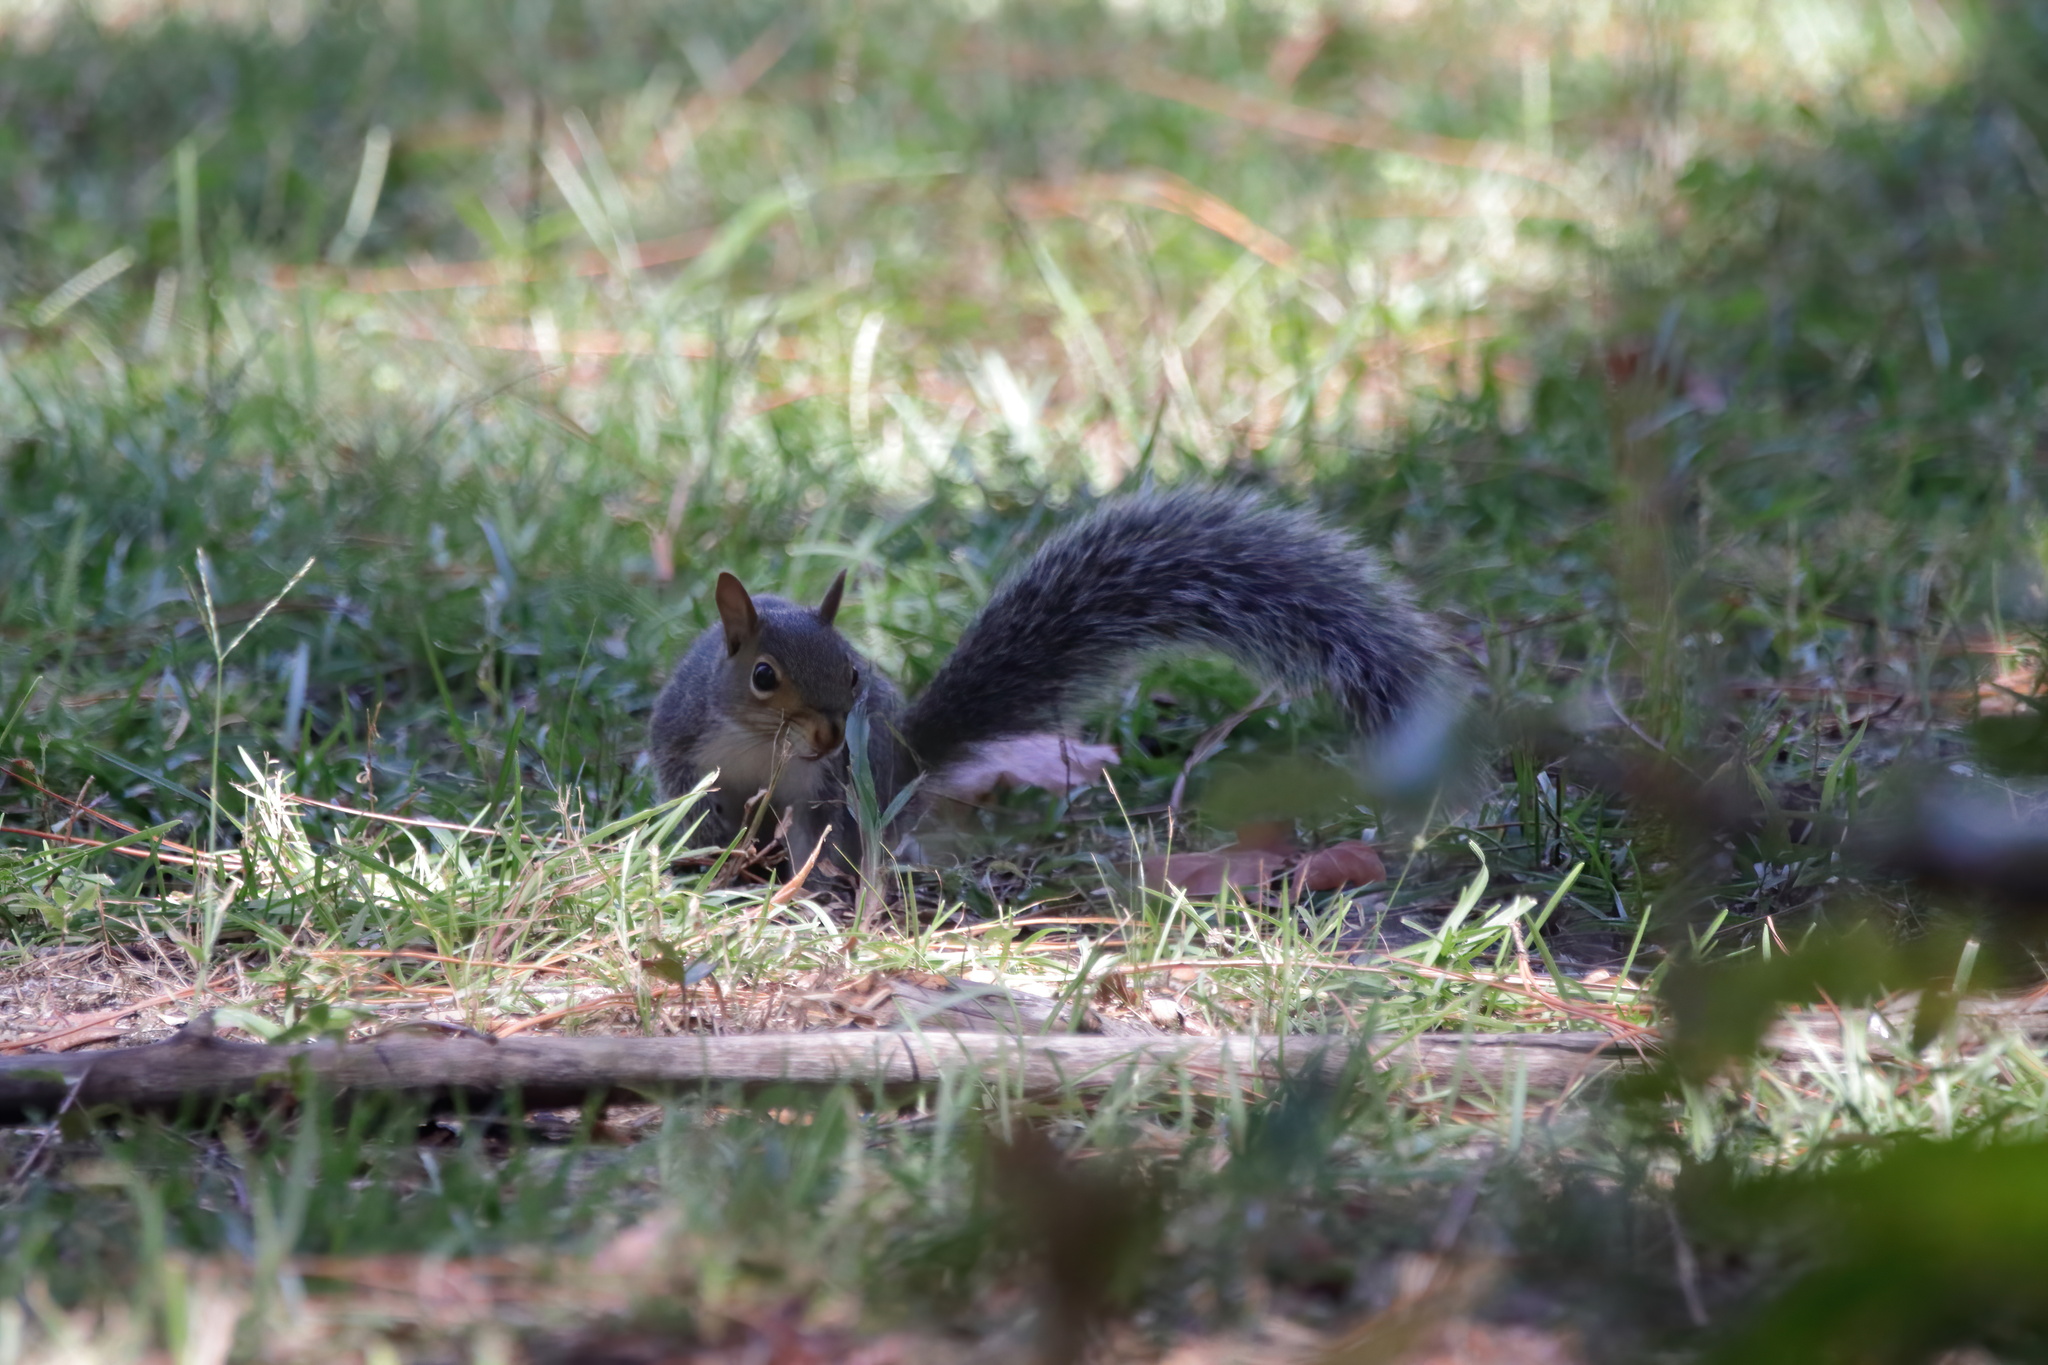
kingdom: Animalia
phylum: Chordata
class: Mammalia
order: Rodentia
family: Sciuridae
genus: Sciurus
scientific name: Sciurus carolinensis
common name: Eastern gray squirrel
